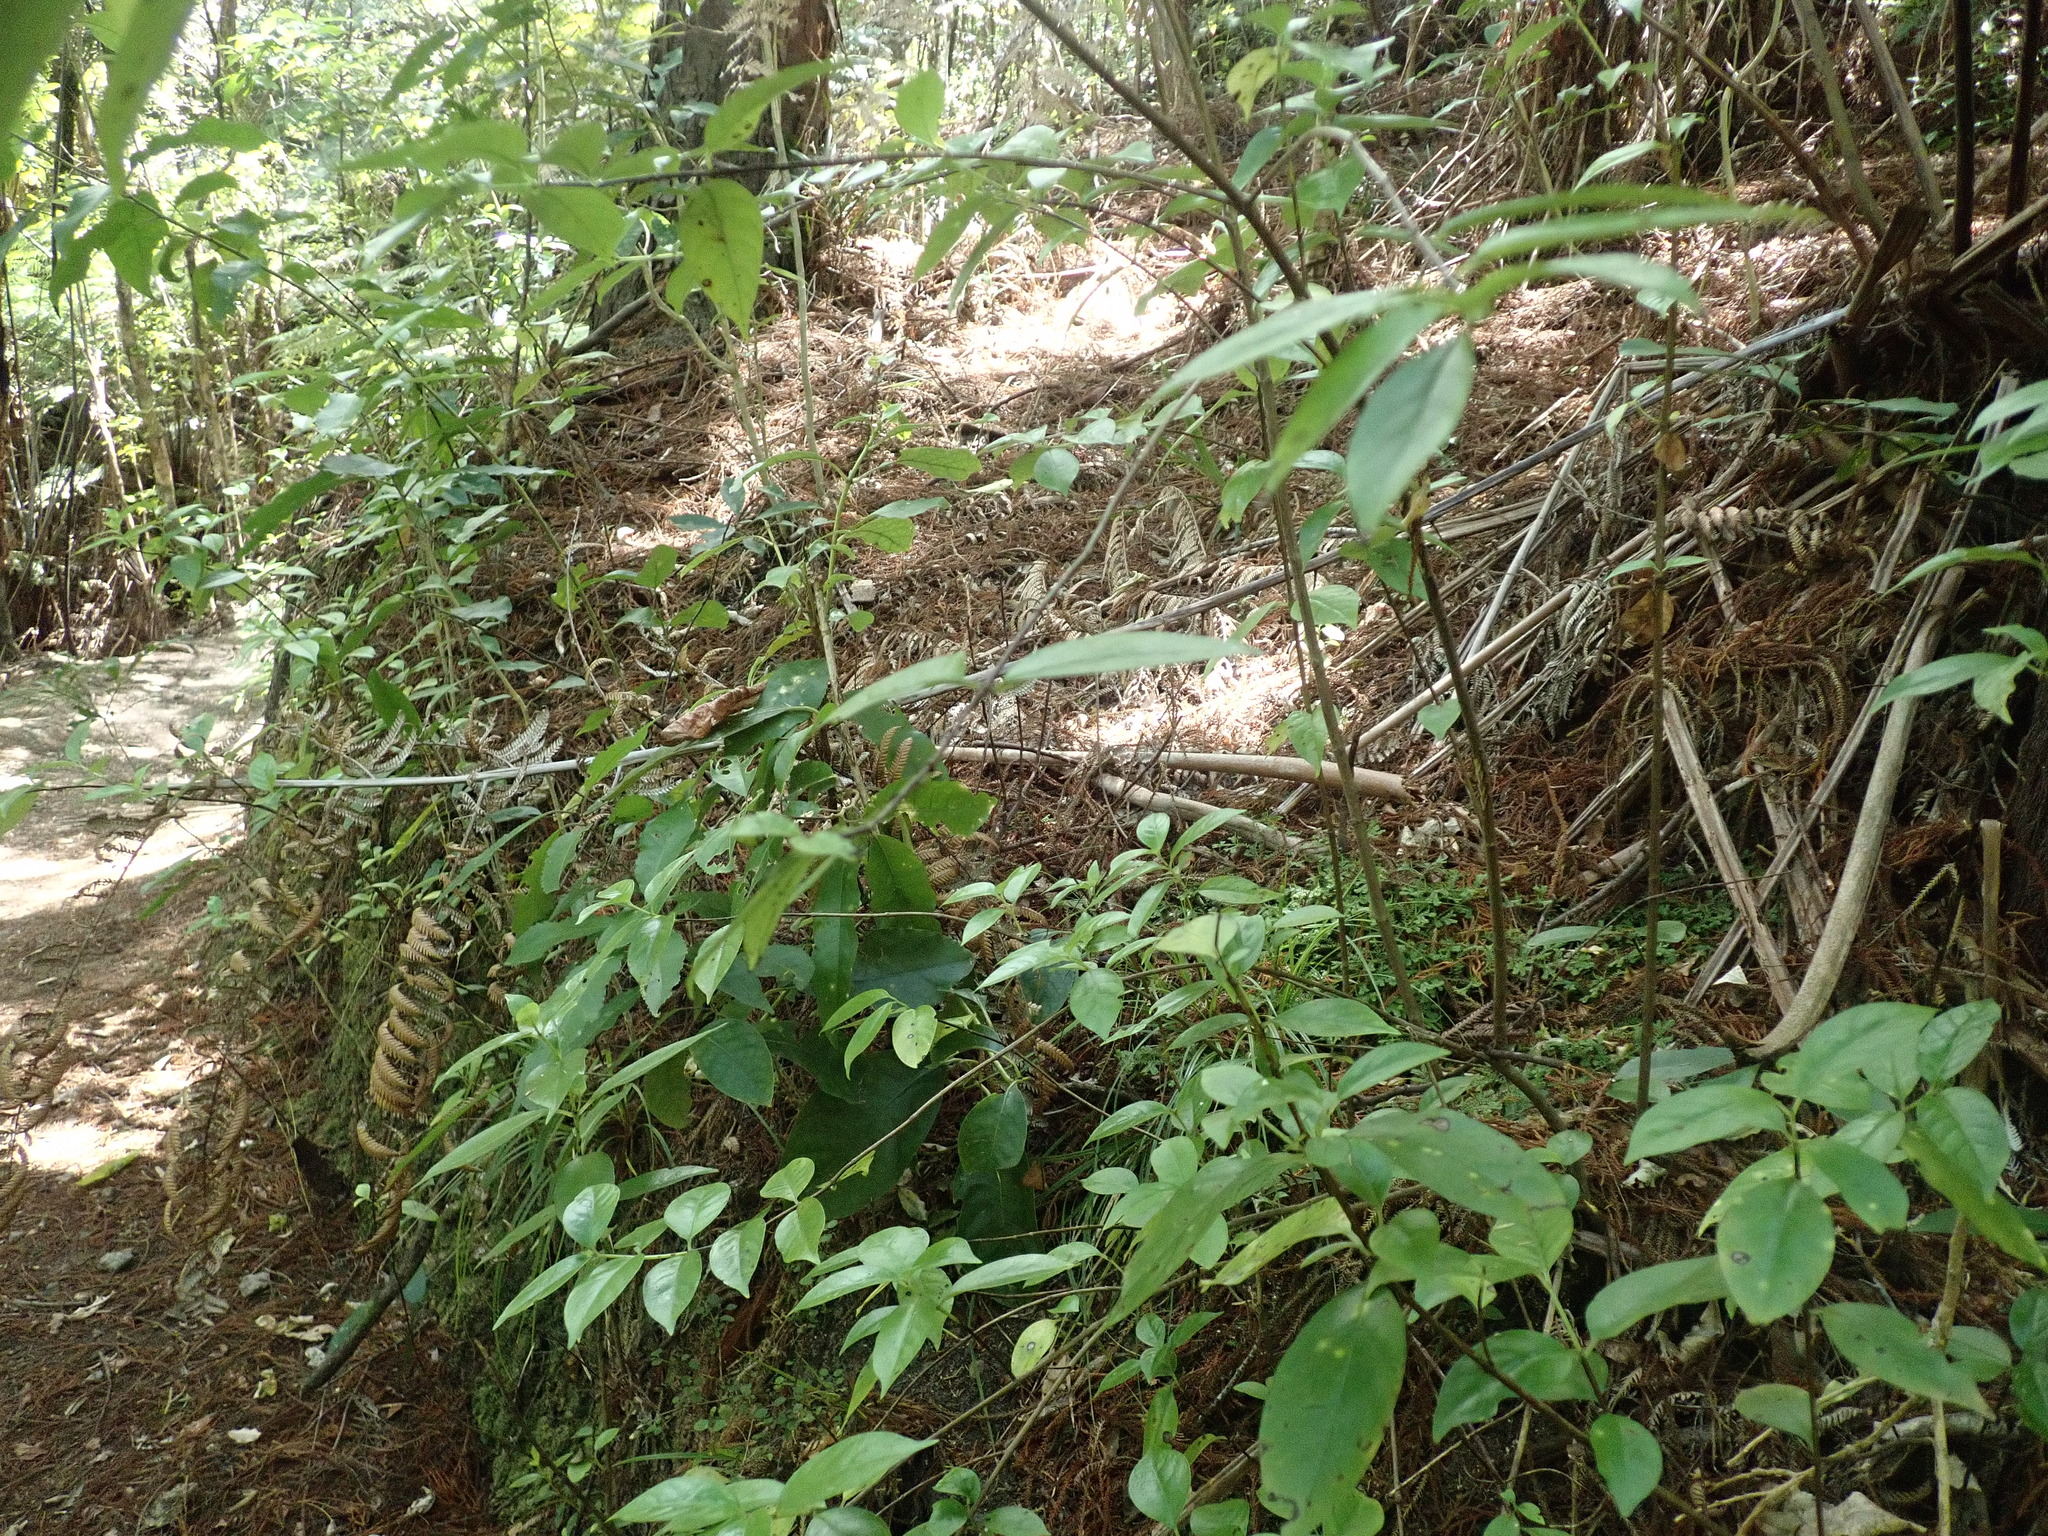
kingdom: Plantae
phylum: Tracheophyta
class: Magnoliopsida
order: Gentianales
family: Loganiaceae
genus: Geniostoma
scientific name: Geniostoma ligustrifolium
